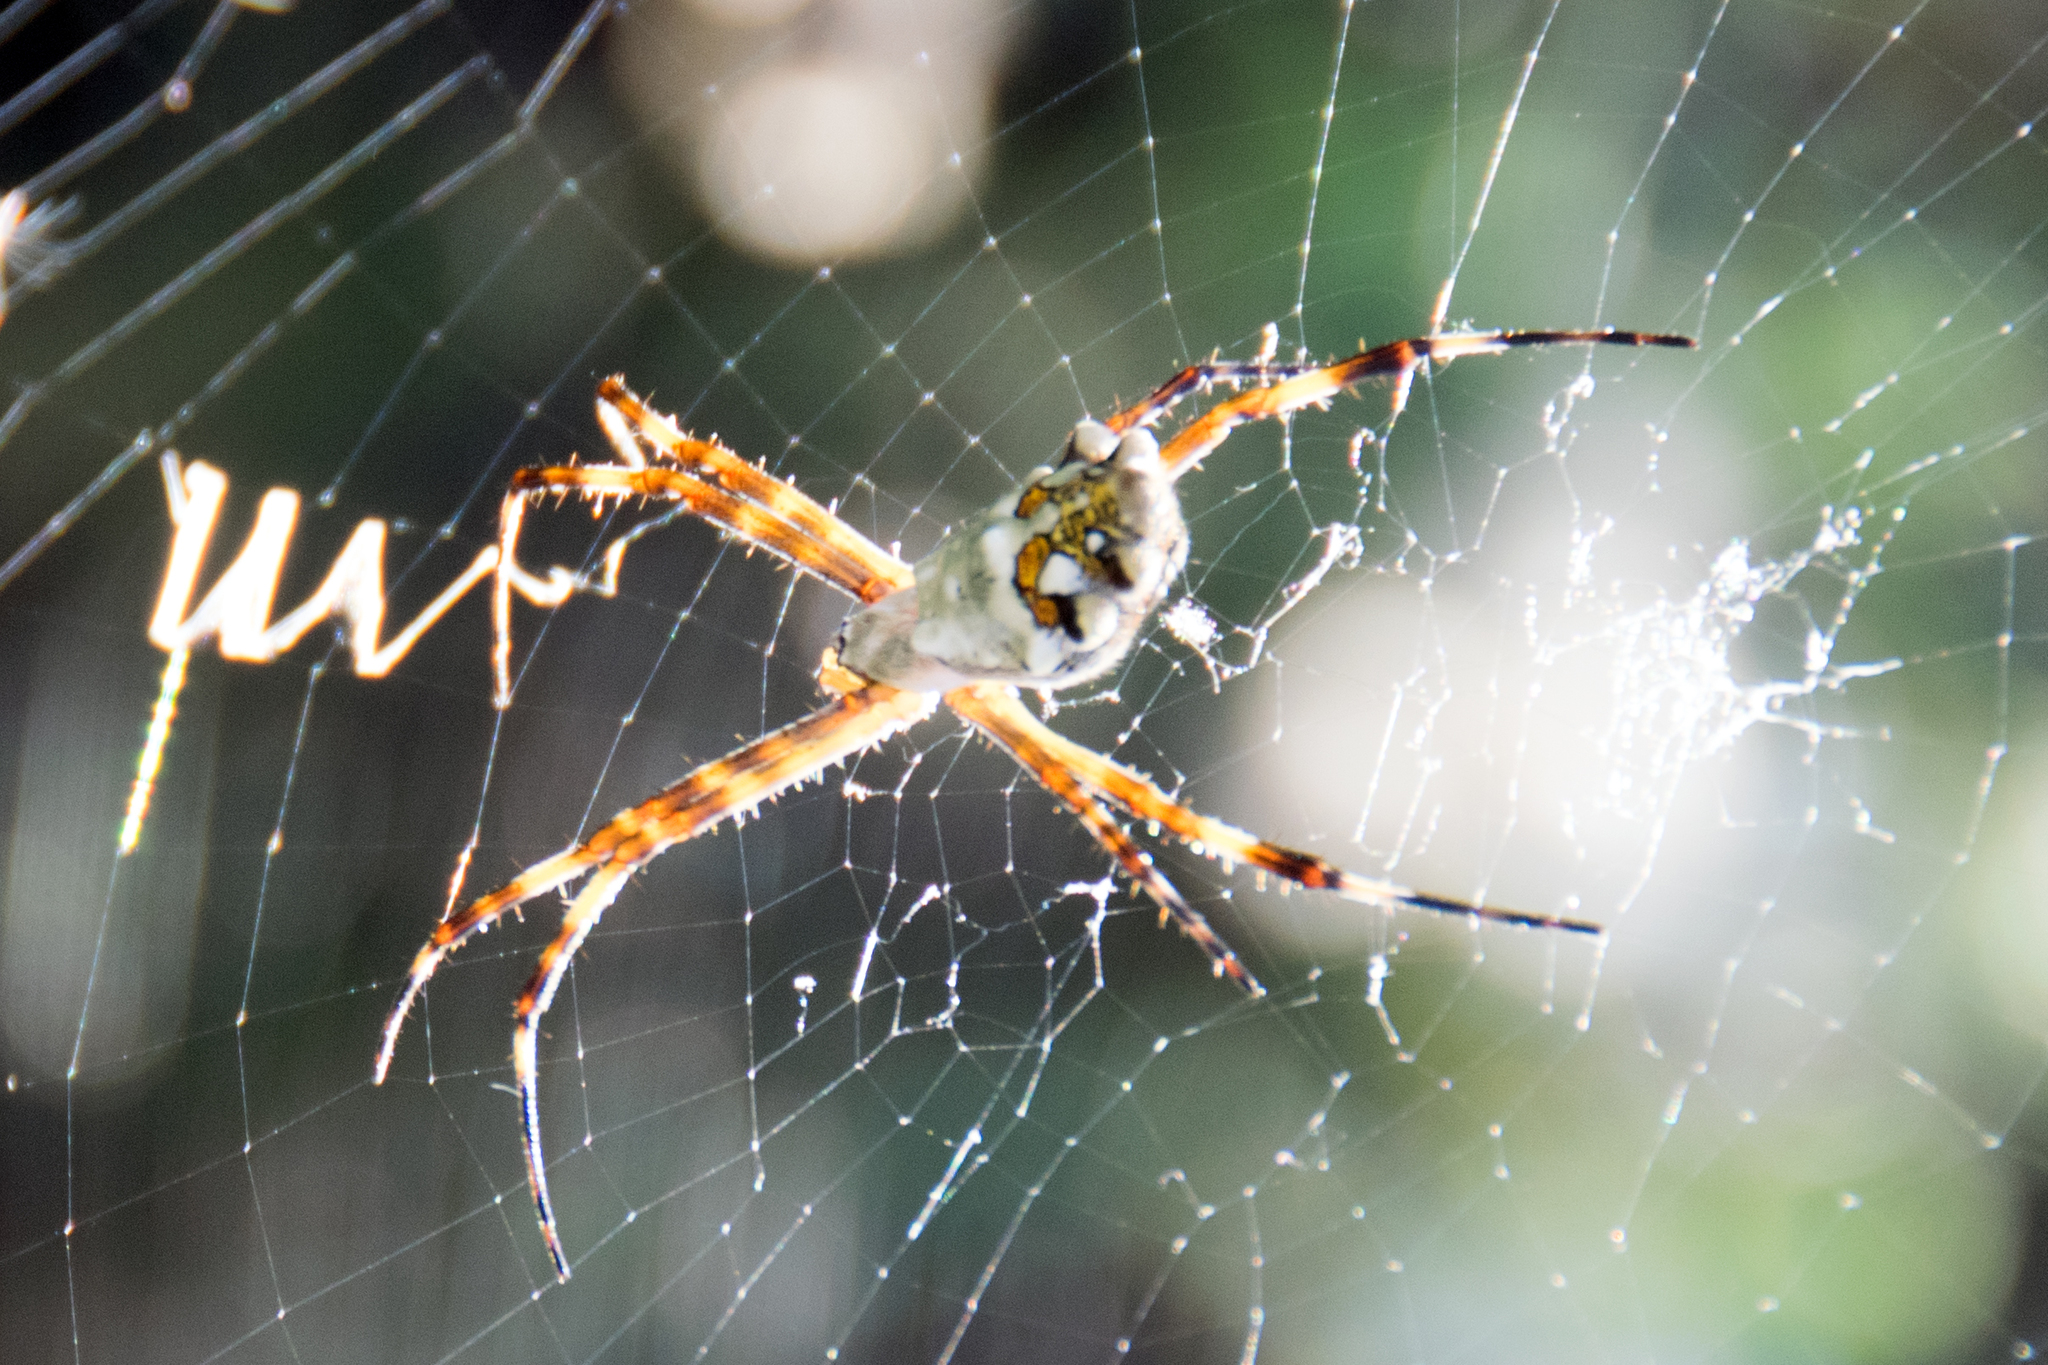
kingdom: Animalia
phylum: Arthropoda
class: Arachnida
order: Araneae
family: Araneidae
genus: Argiope
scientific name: Argiope argentata
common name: Orb weavers
